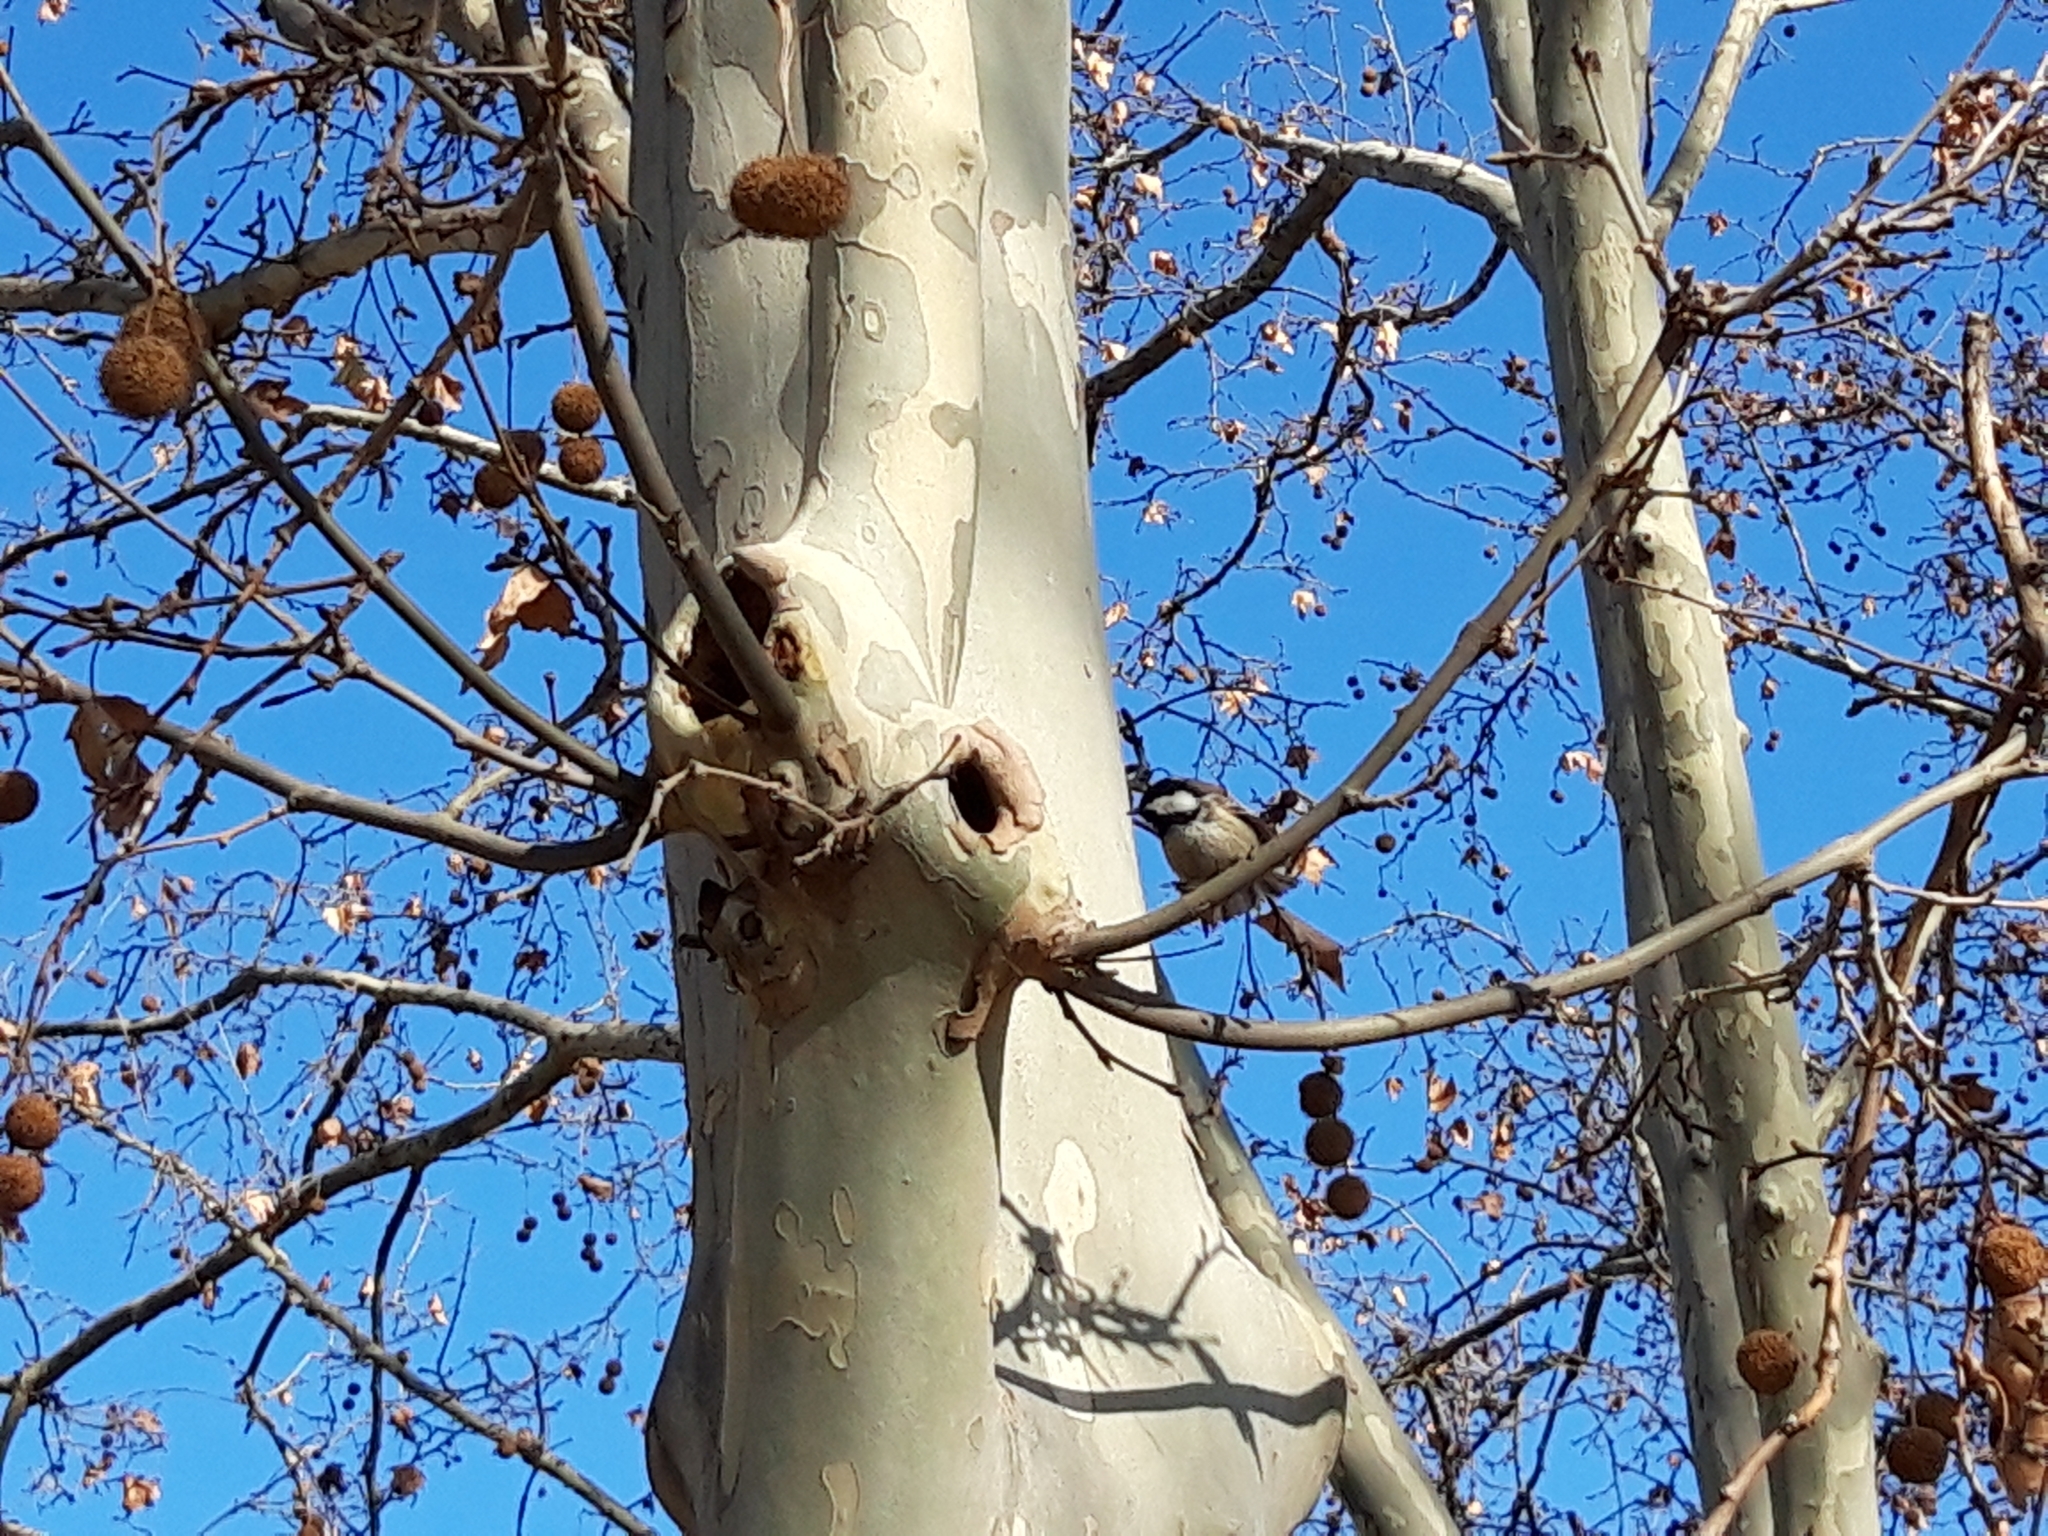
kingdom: Animalia
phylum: Chordata
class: Aves
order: Passeriformes
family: Paridae
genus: Periparus
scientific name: Periparus ater
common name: Coal tit
